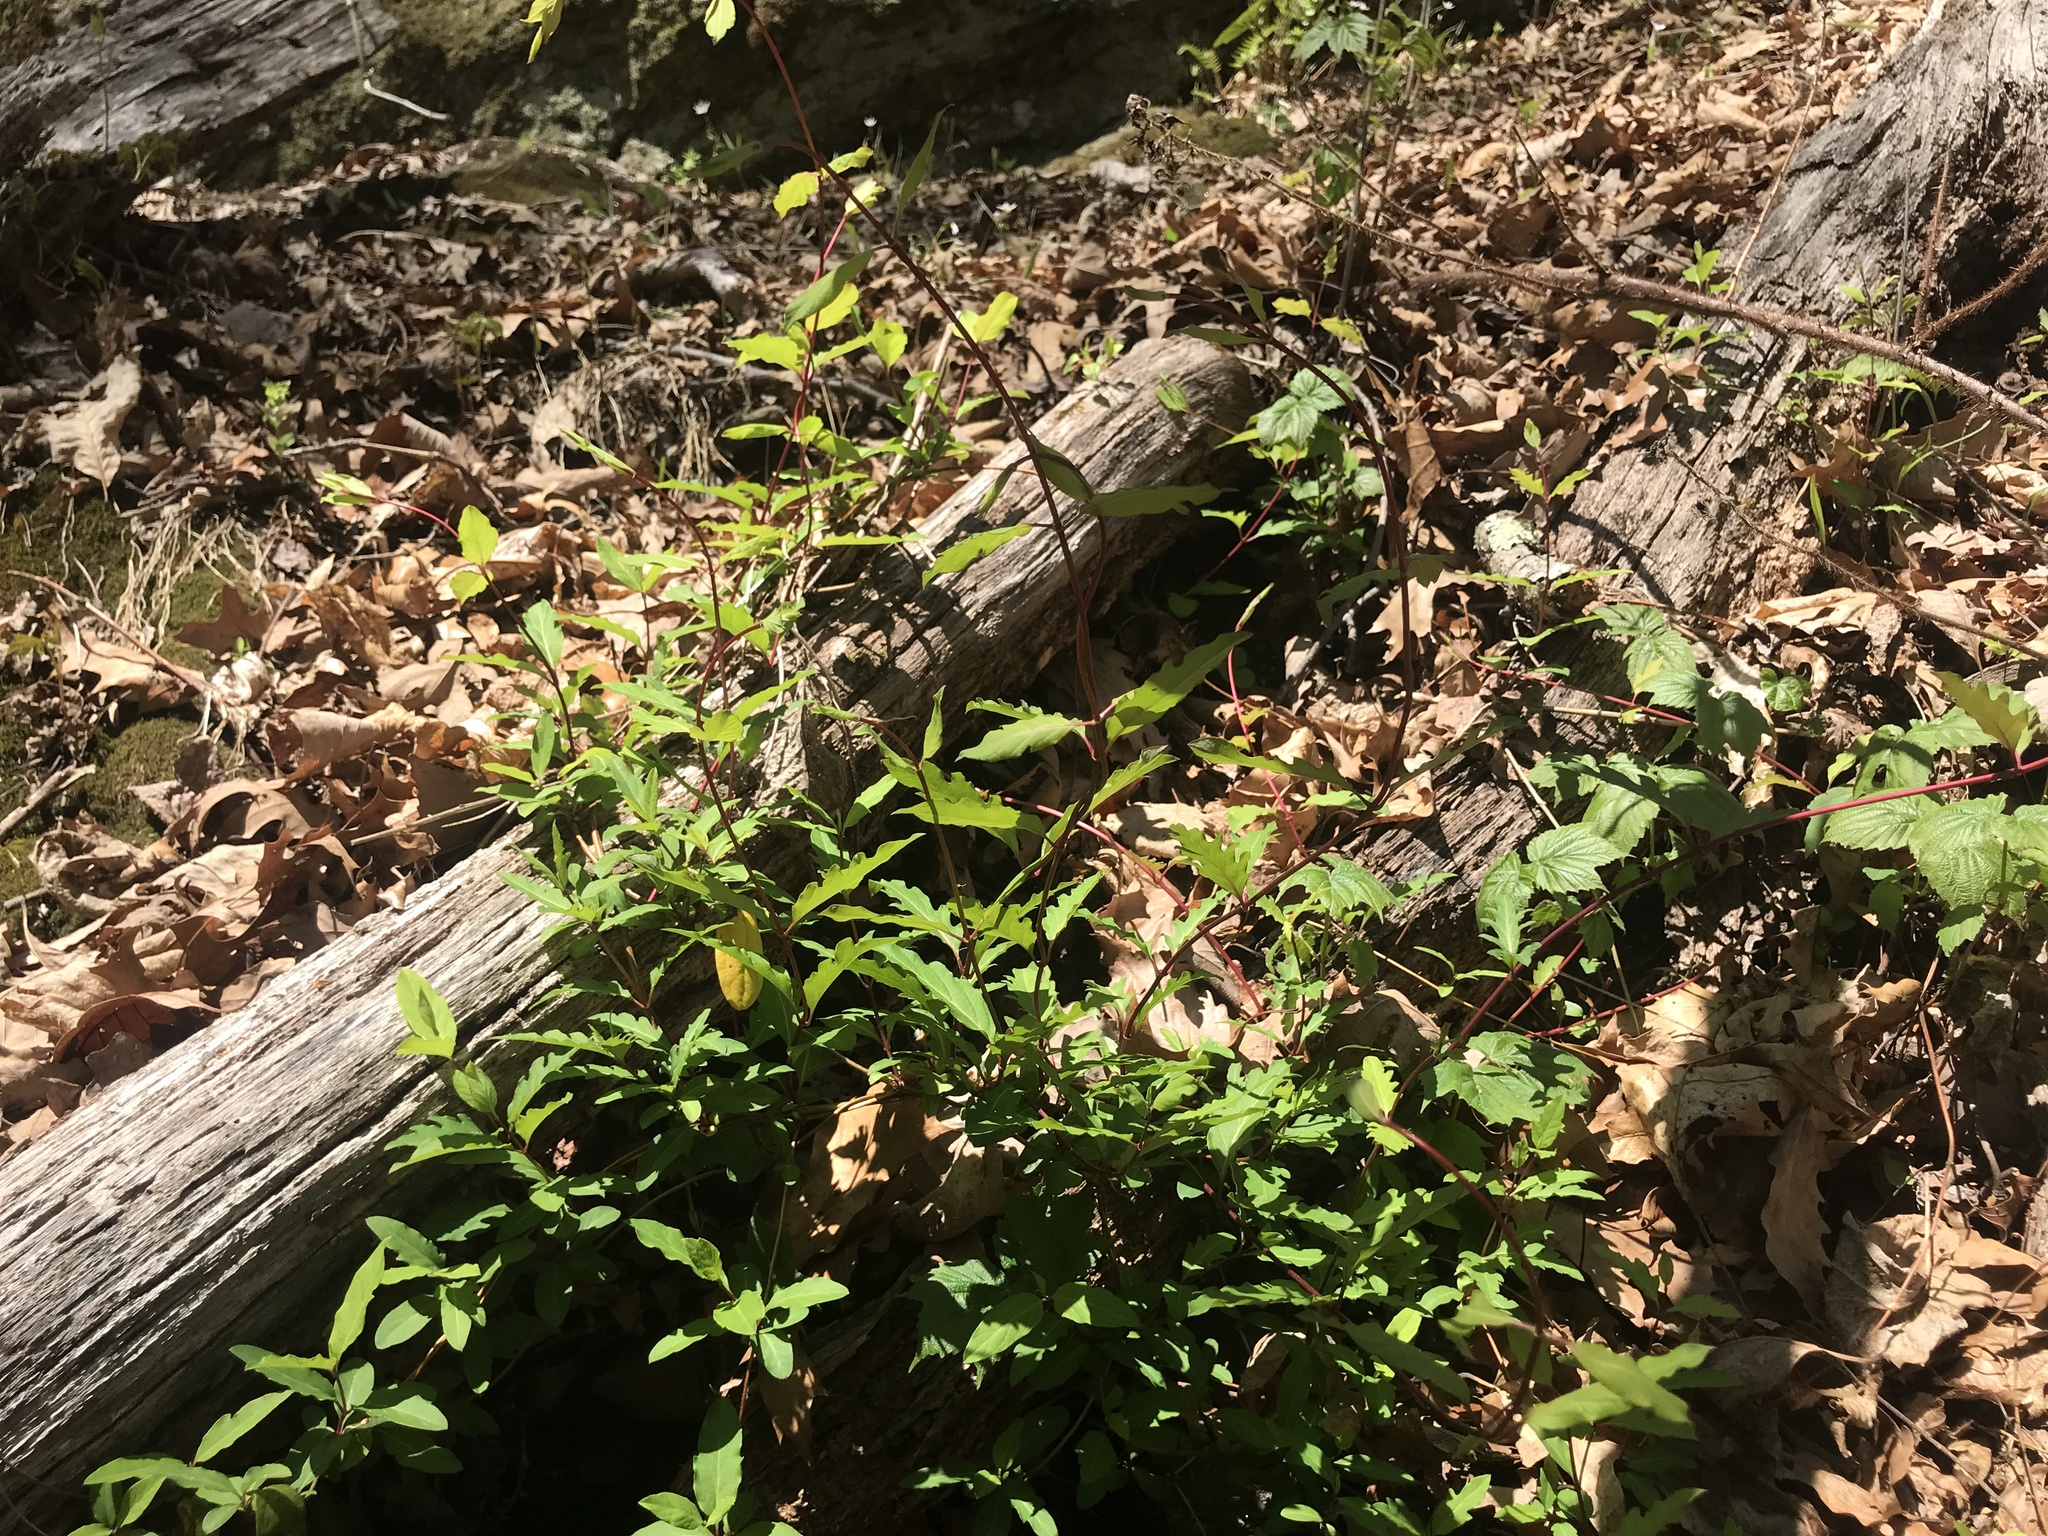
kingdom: Plantae
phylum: Tracheophyta
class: Magnoliopsida
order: Dipsacales
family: Caprifoliaceae
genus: Lonicera
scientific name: Lonicera japonica
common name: Japanese honeysuckle
